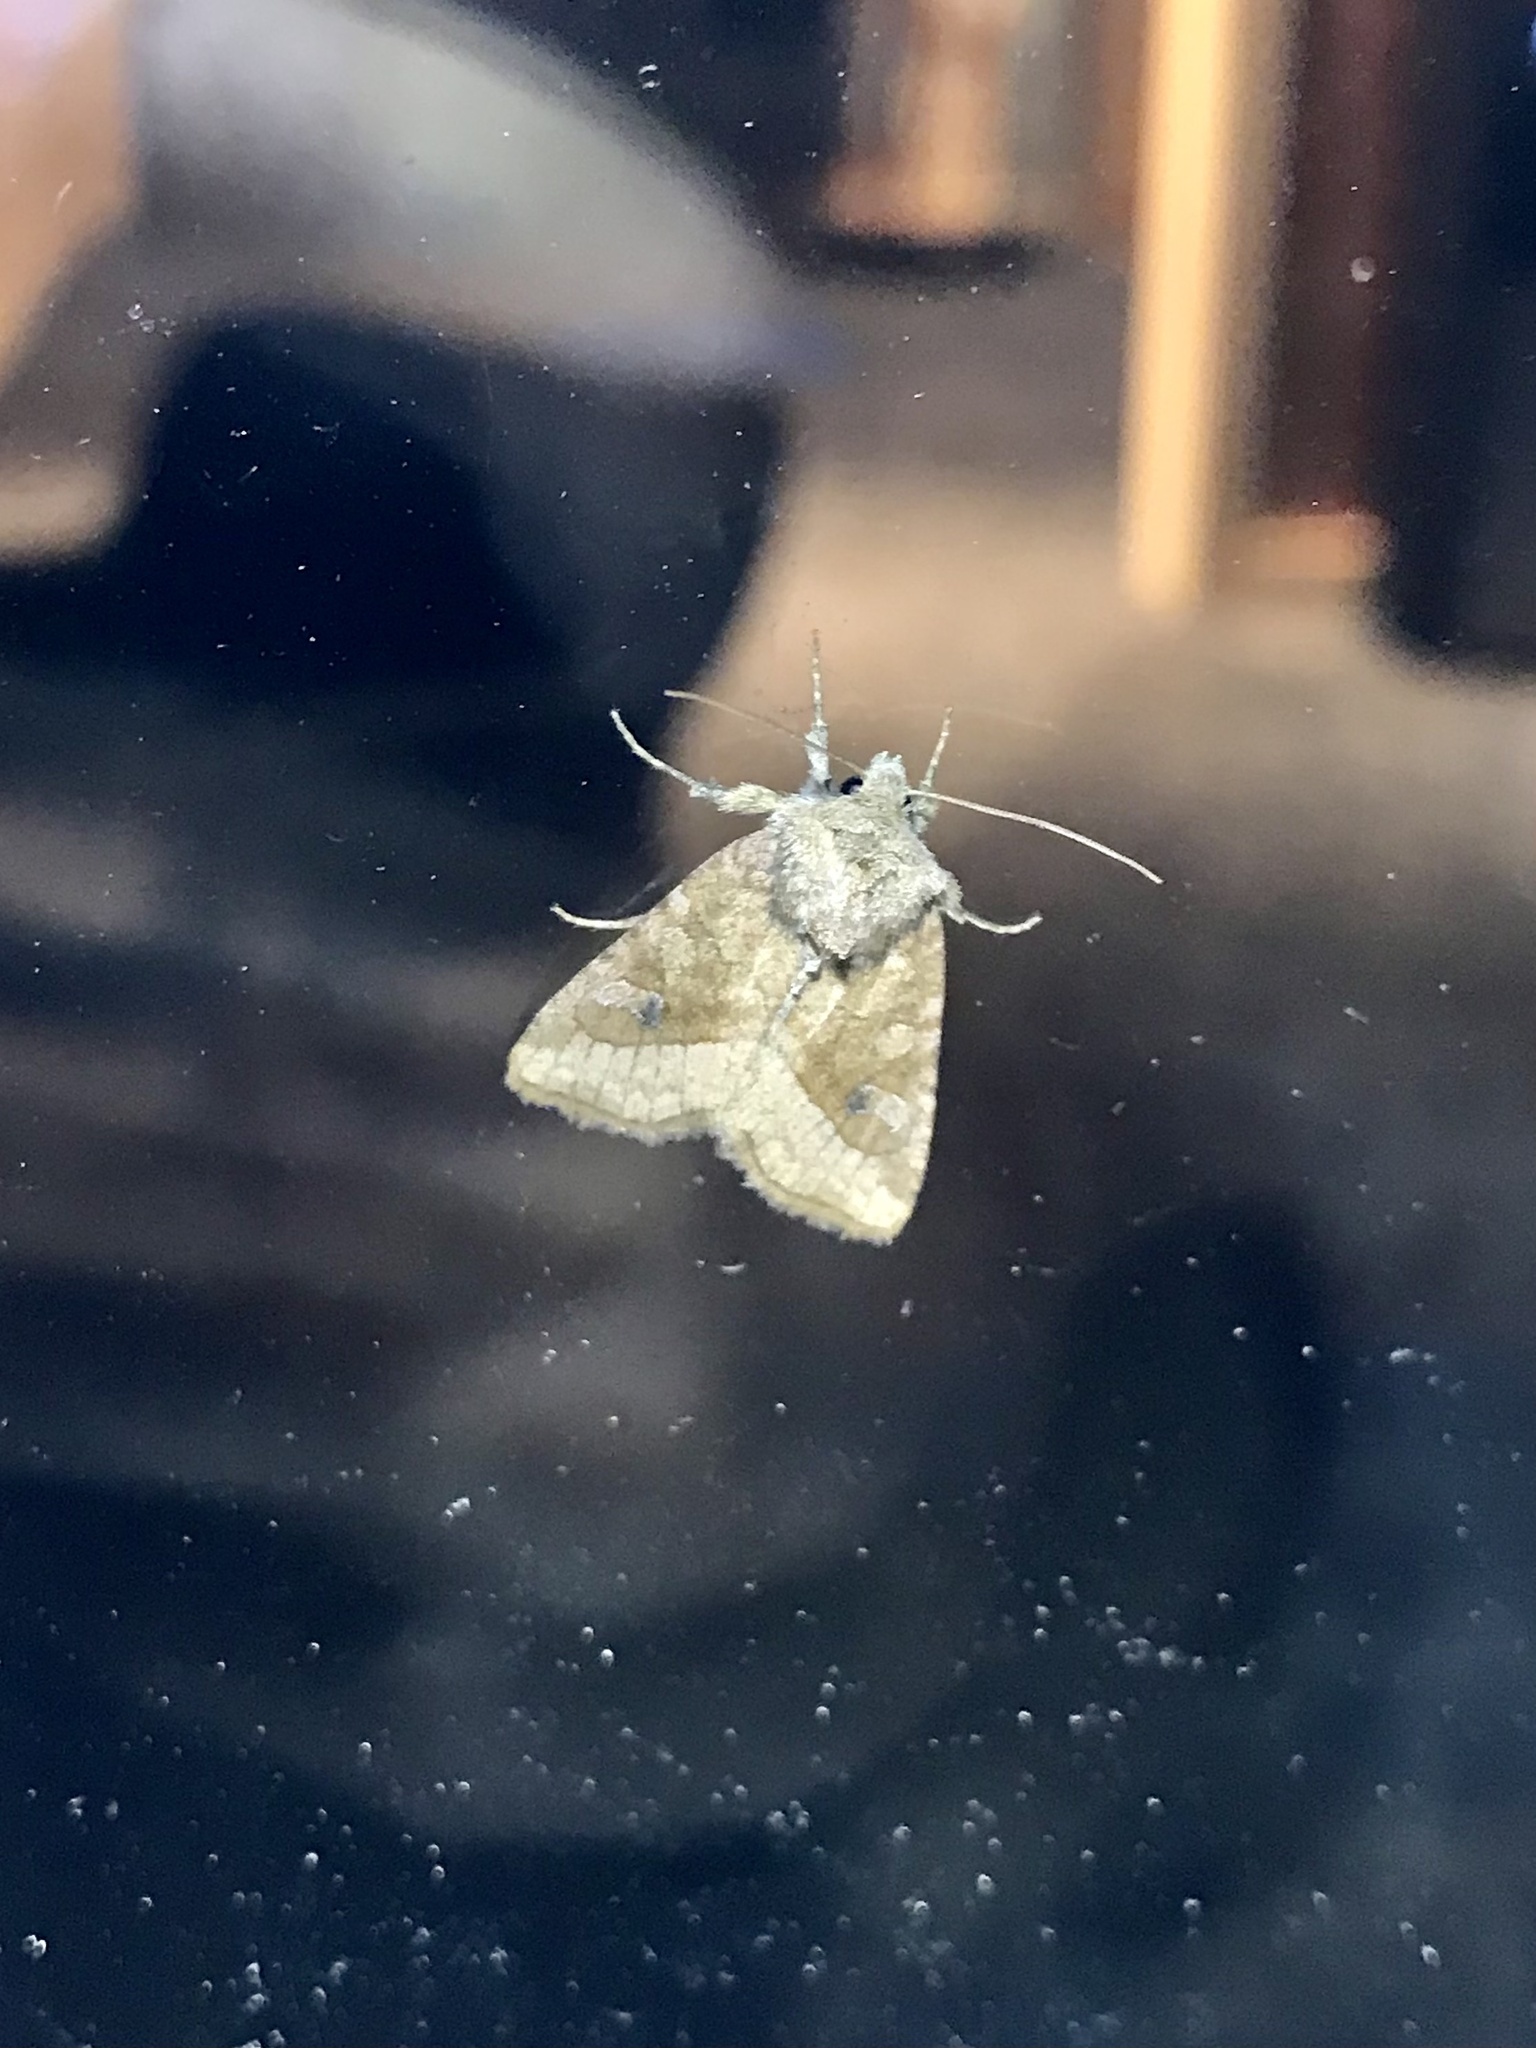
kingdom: Animalia
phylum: Arthropoda
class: Insecta
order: Lepidoptera
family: Noctuidae
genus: Lacinipolia
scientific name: Lacinipolia lorea
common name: Bridled arches moth
